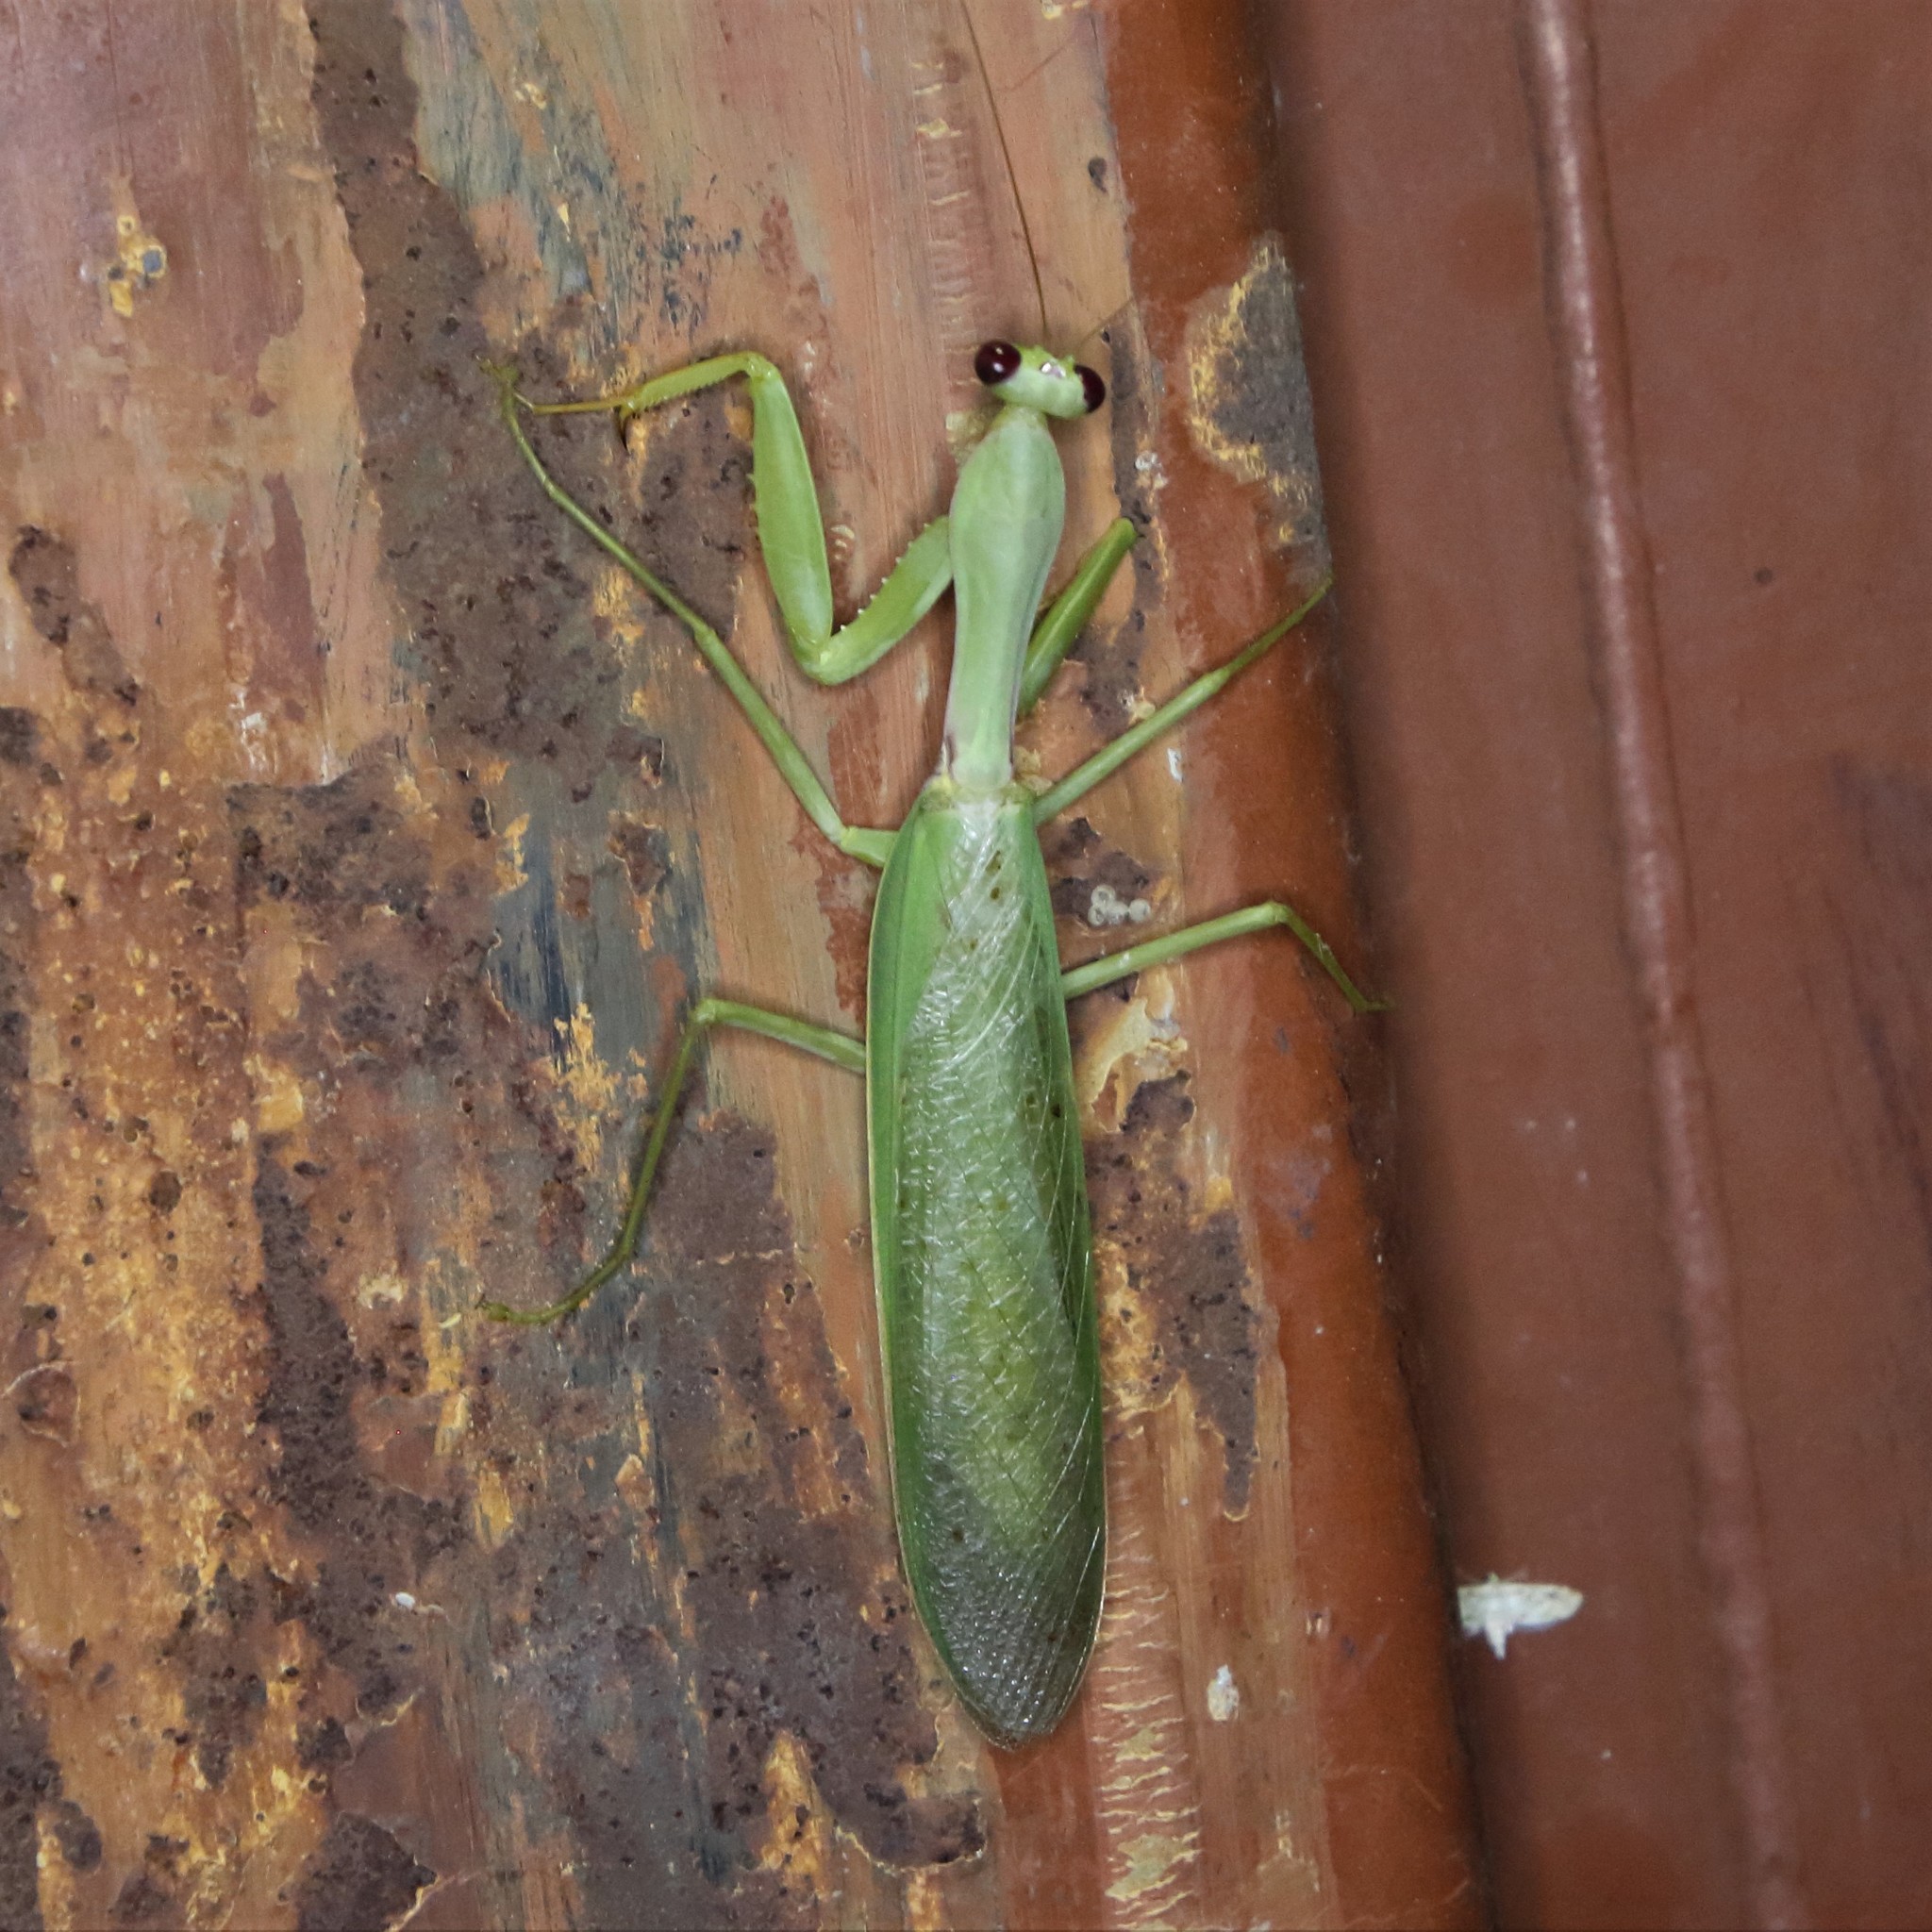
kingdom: Animalia
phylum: Arthropoda
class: Insecta
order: Mantodea
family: Mantidae
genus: Hierodula
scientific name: Hierodula pistillinota
